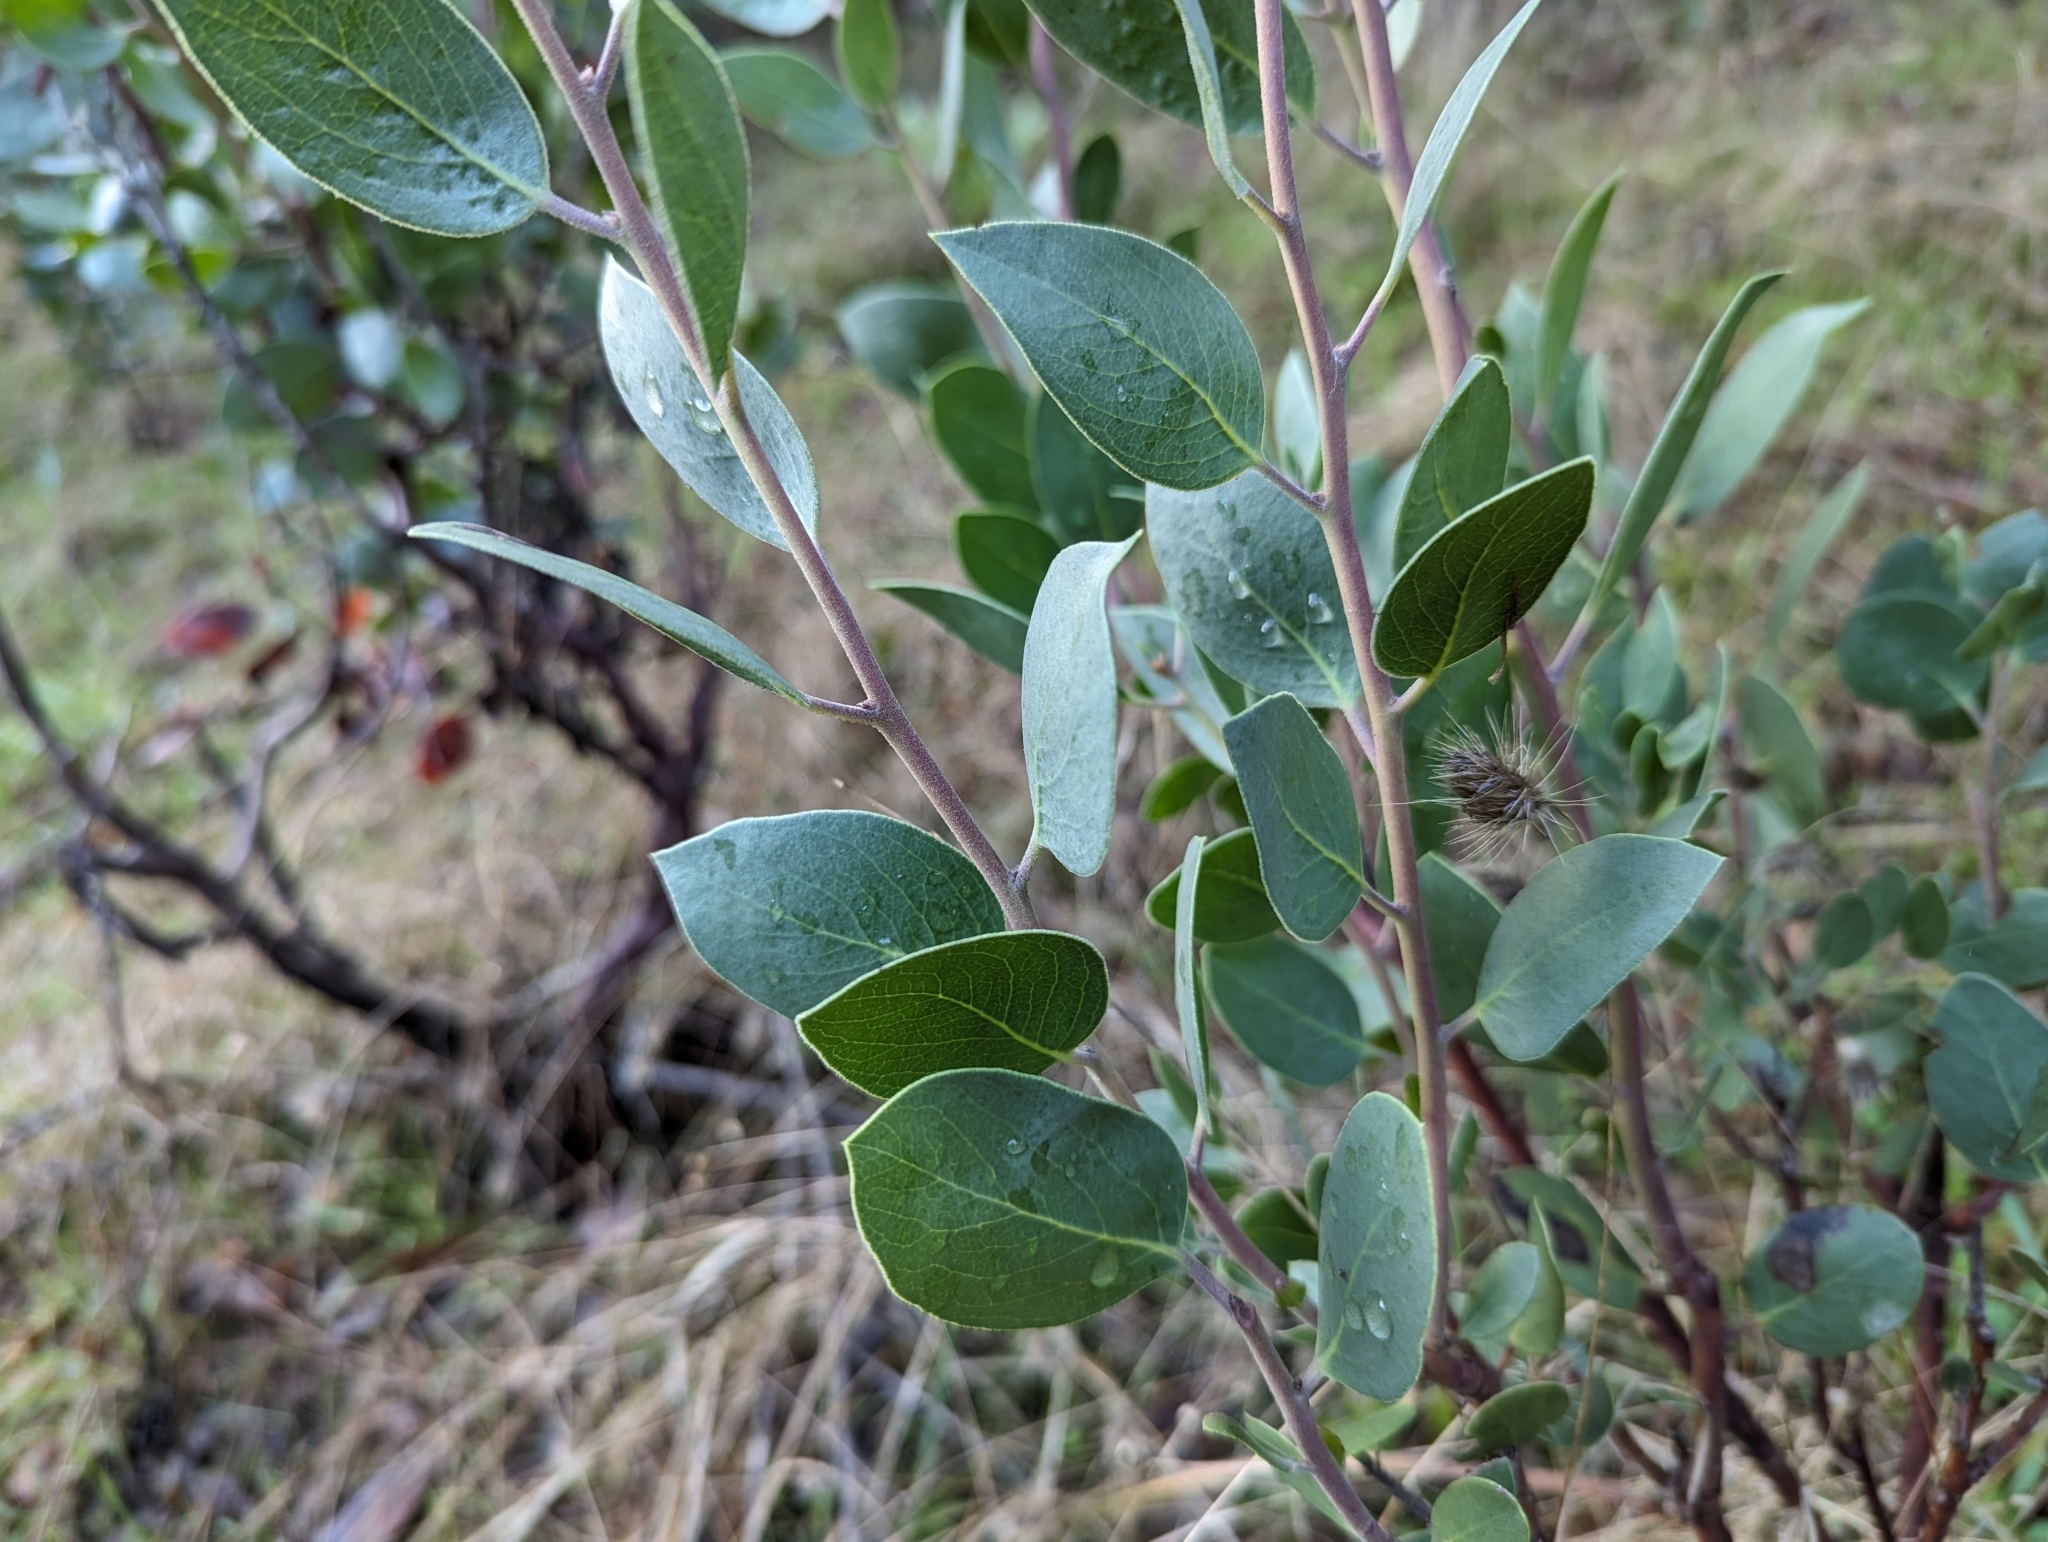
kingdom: Plantae
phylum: Tracheophyta
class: Magnoliopsida
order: Ericales
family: Ericaceae
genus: Arctostaphylos
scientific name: Arctostaphylos manzanita
